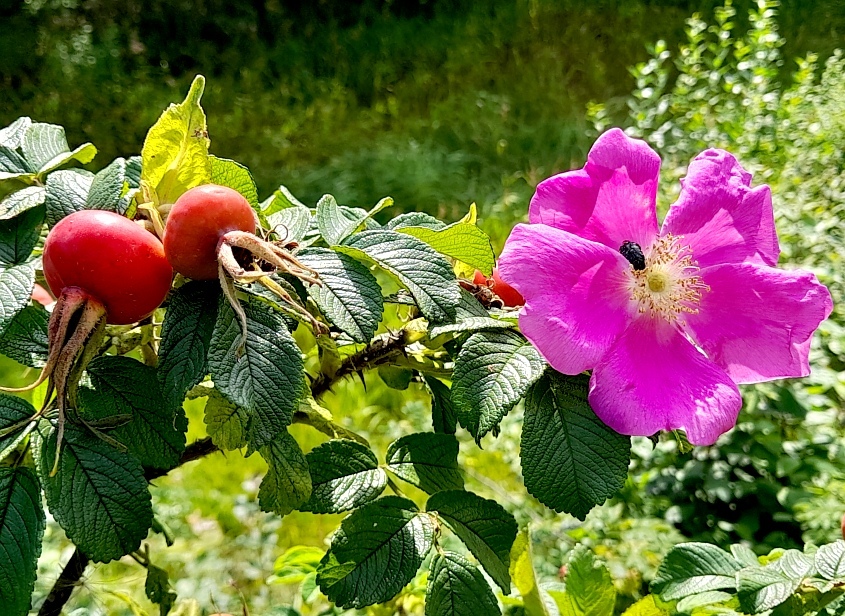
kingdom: Animalia
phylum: Arthropoda
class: Insecta
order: Coleoptera
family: Scarabaeidae
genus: Oxythyrea
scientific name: Oxythyrea funesta
